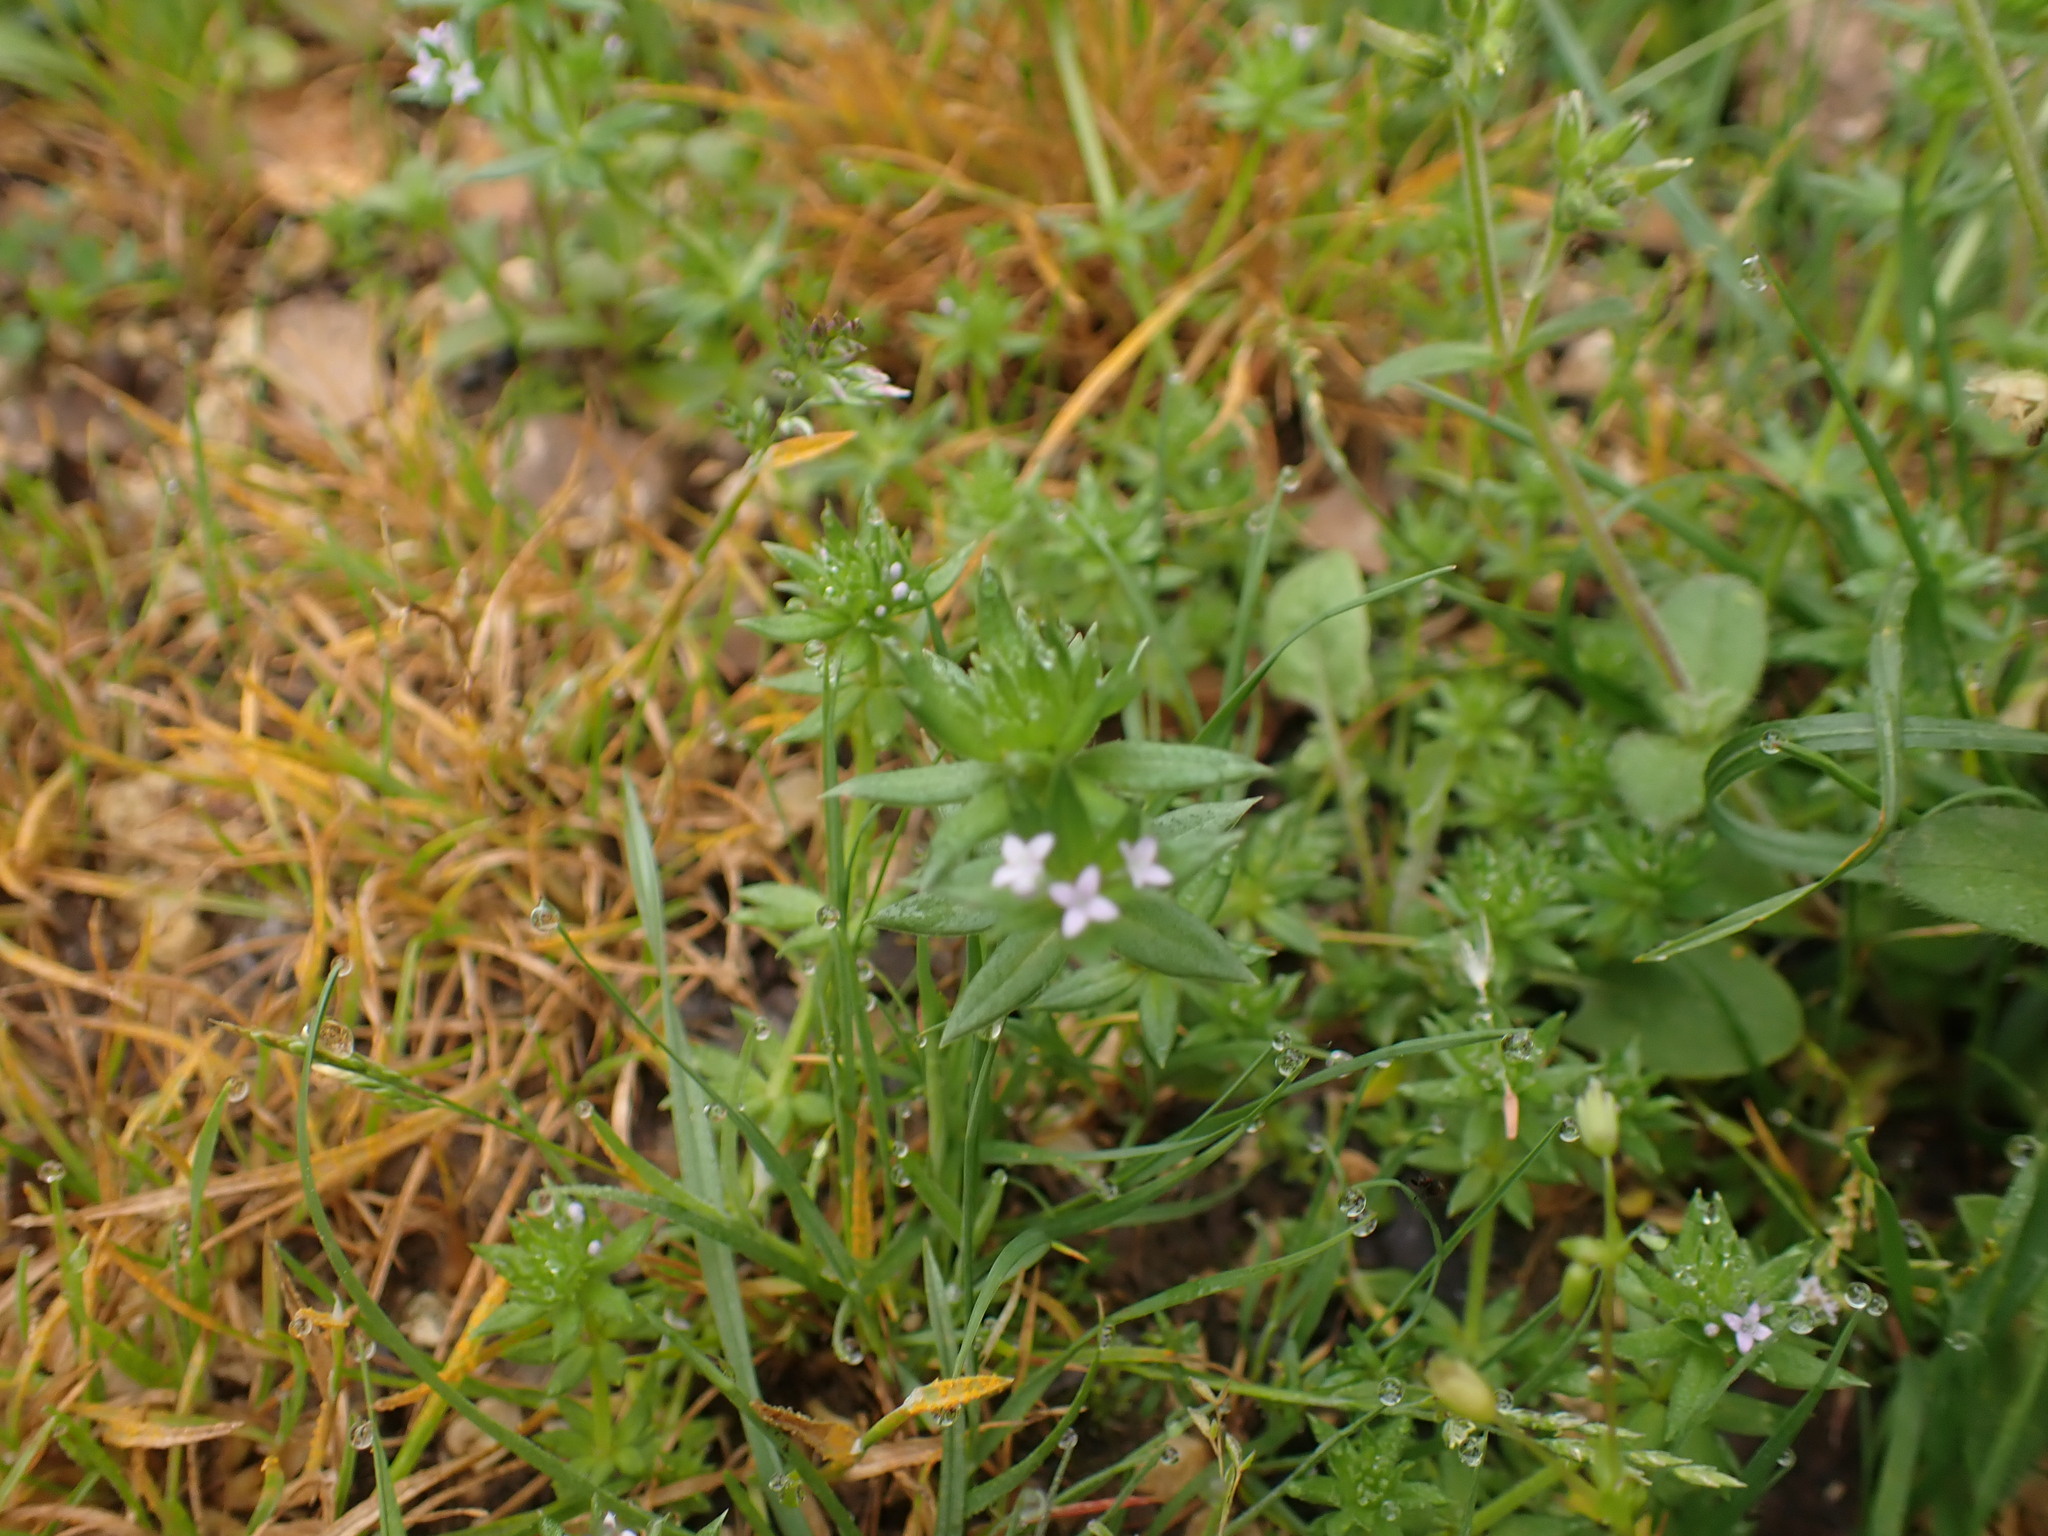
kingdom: Plantae
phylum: Tracheophyta
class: Magnoliopsida
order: Gentianales
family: Rubiaceae
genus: Sherardia
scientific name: Sherardia arvensis
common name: Field madder
